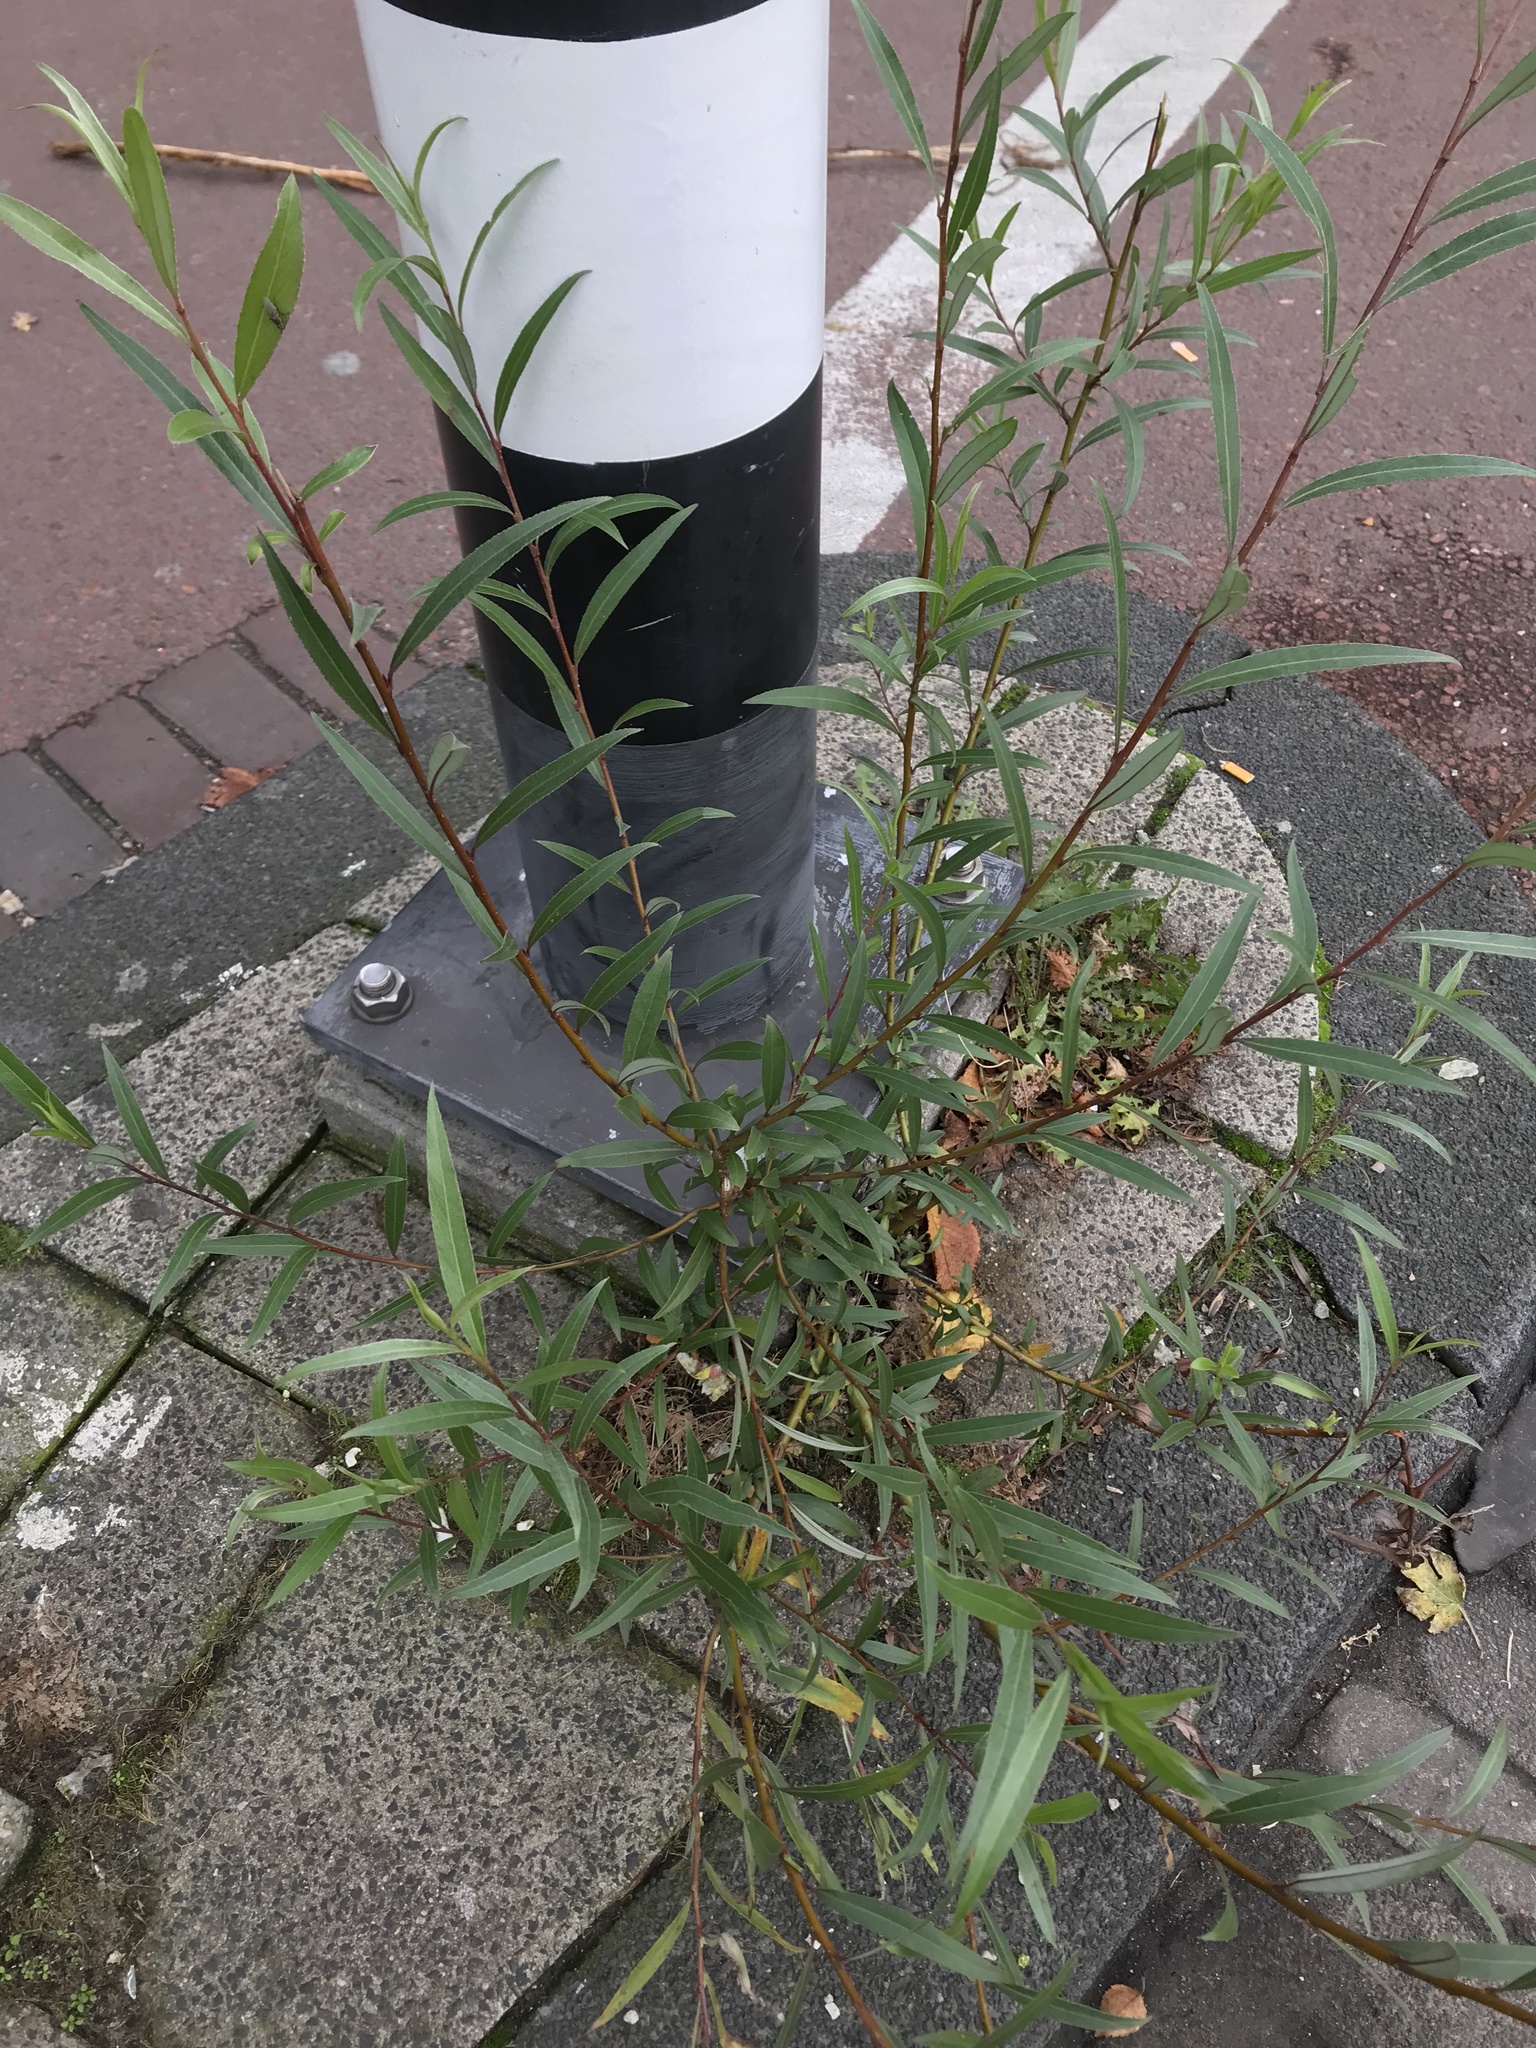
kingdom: Plantae
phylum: Tracheophyta
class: Magnoliopsida
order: Malpighiales
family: Salicaceae
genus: Salix
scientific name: Salix alba
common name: White willow
